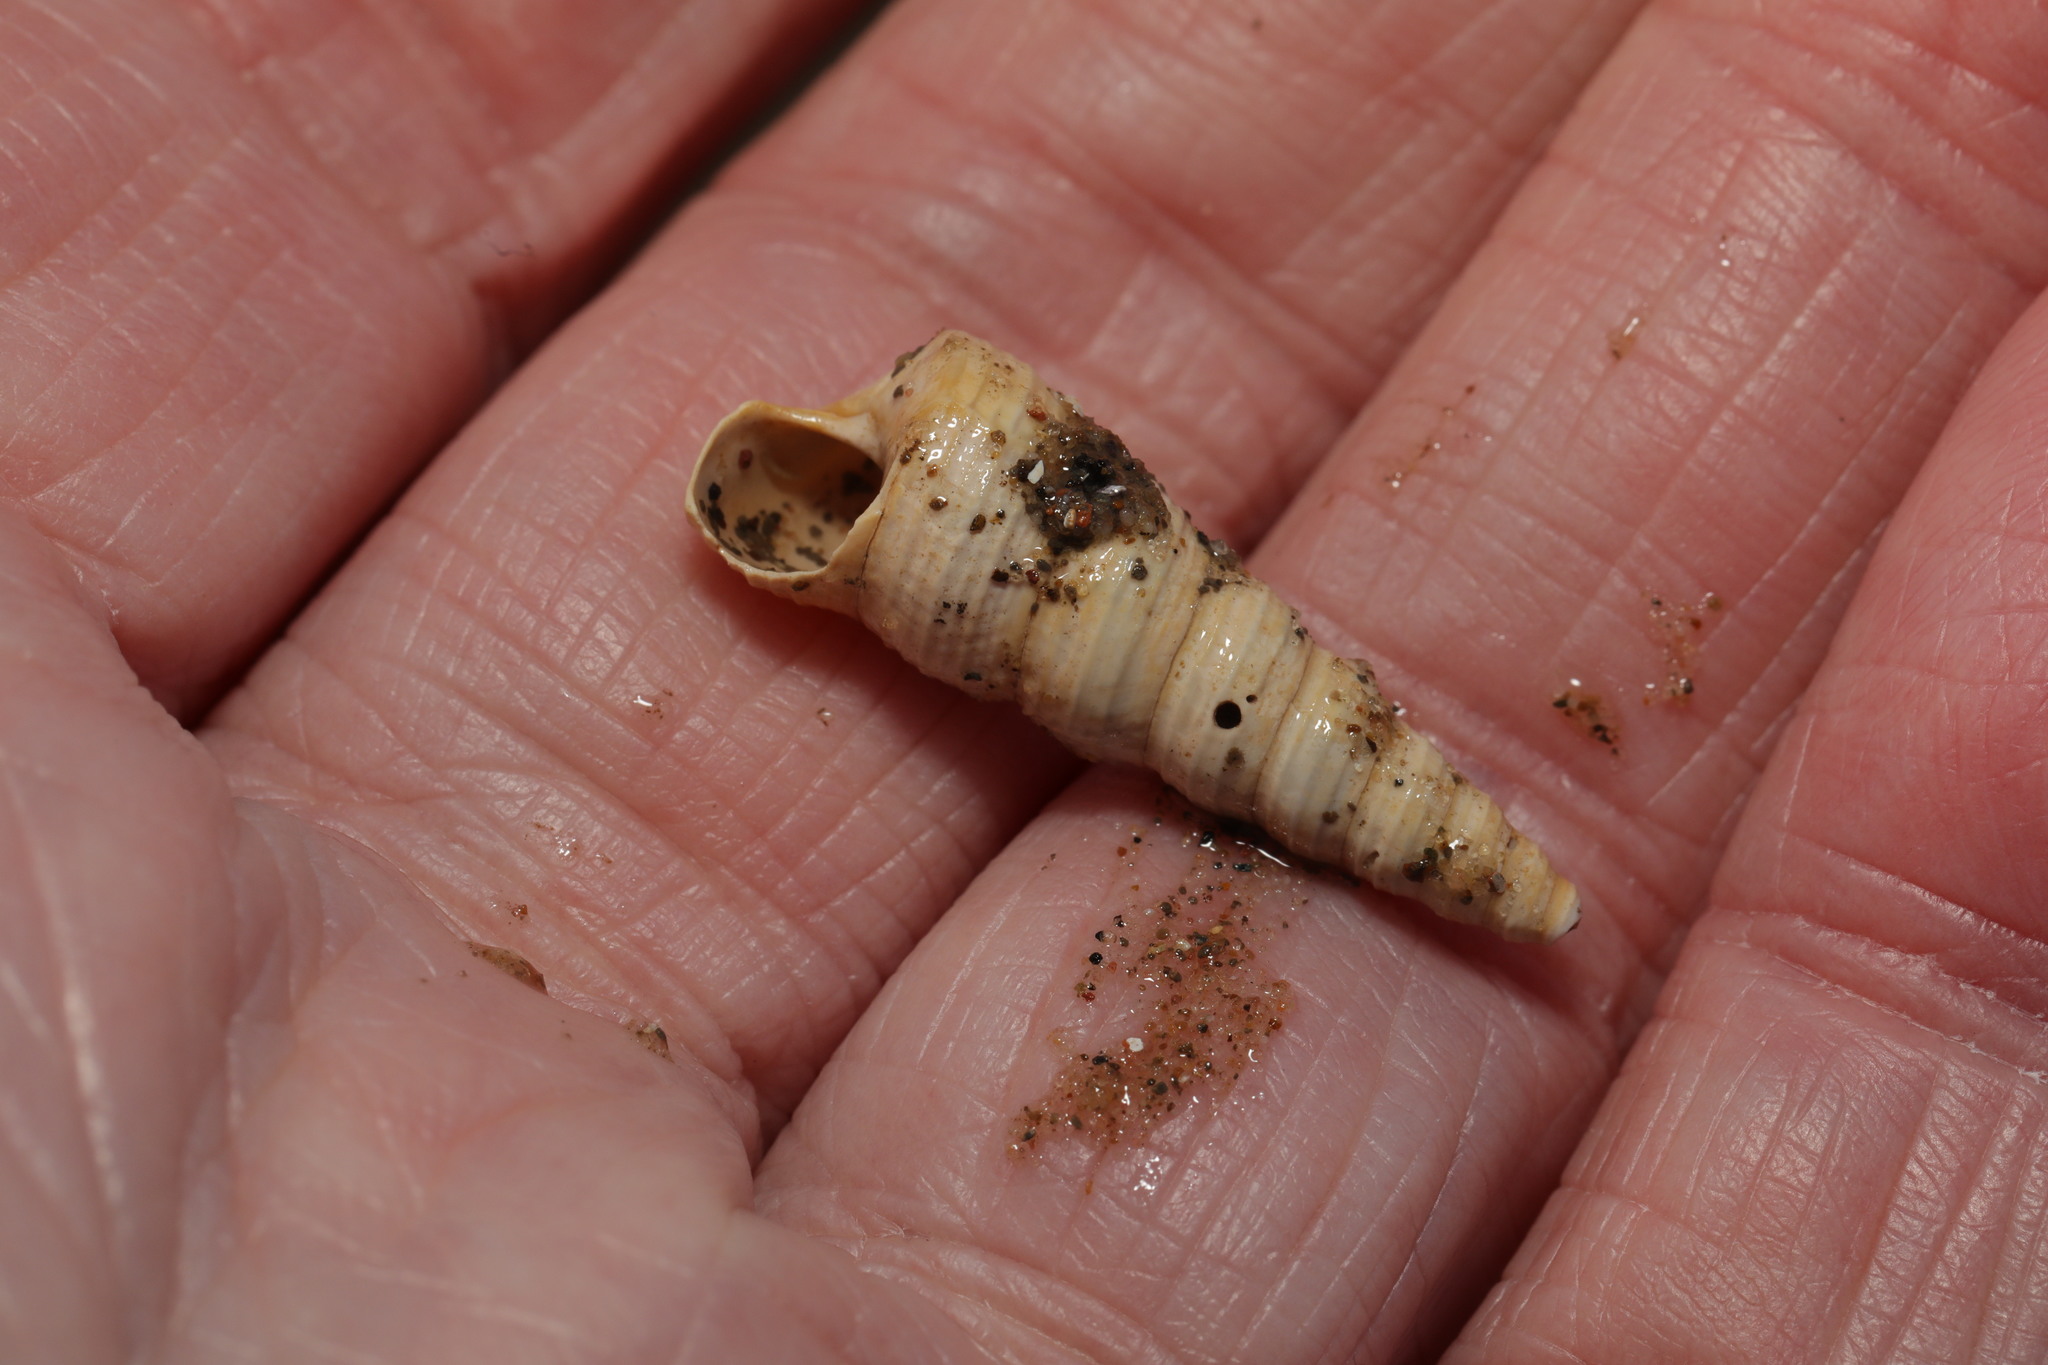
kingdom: Animalia
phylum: Mollusca
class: Gastropoda
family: Turritellidae
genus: Turritellinella
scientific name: Turritellinella tricarinata
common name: Auger shell
